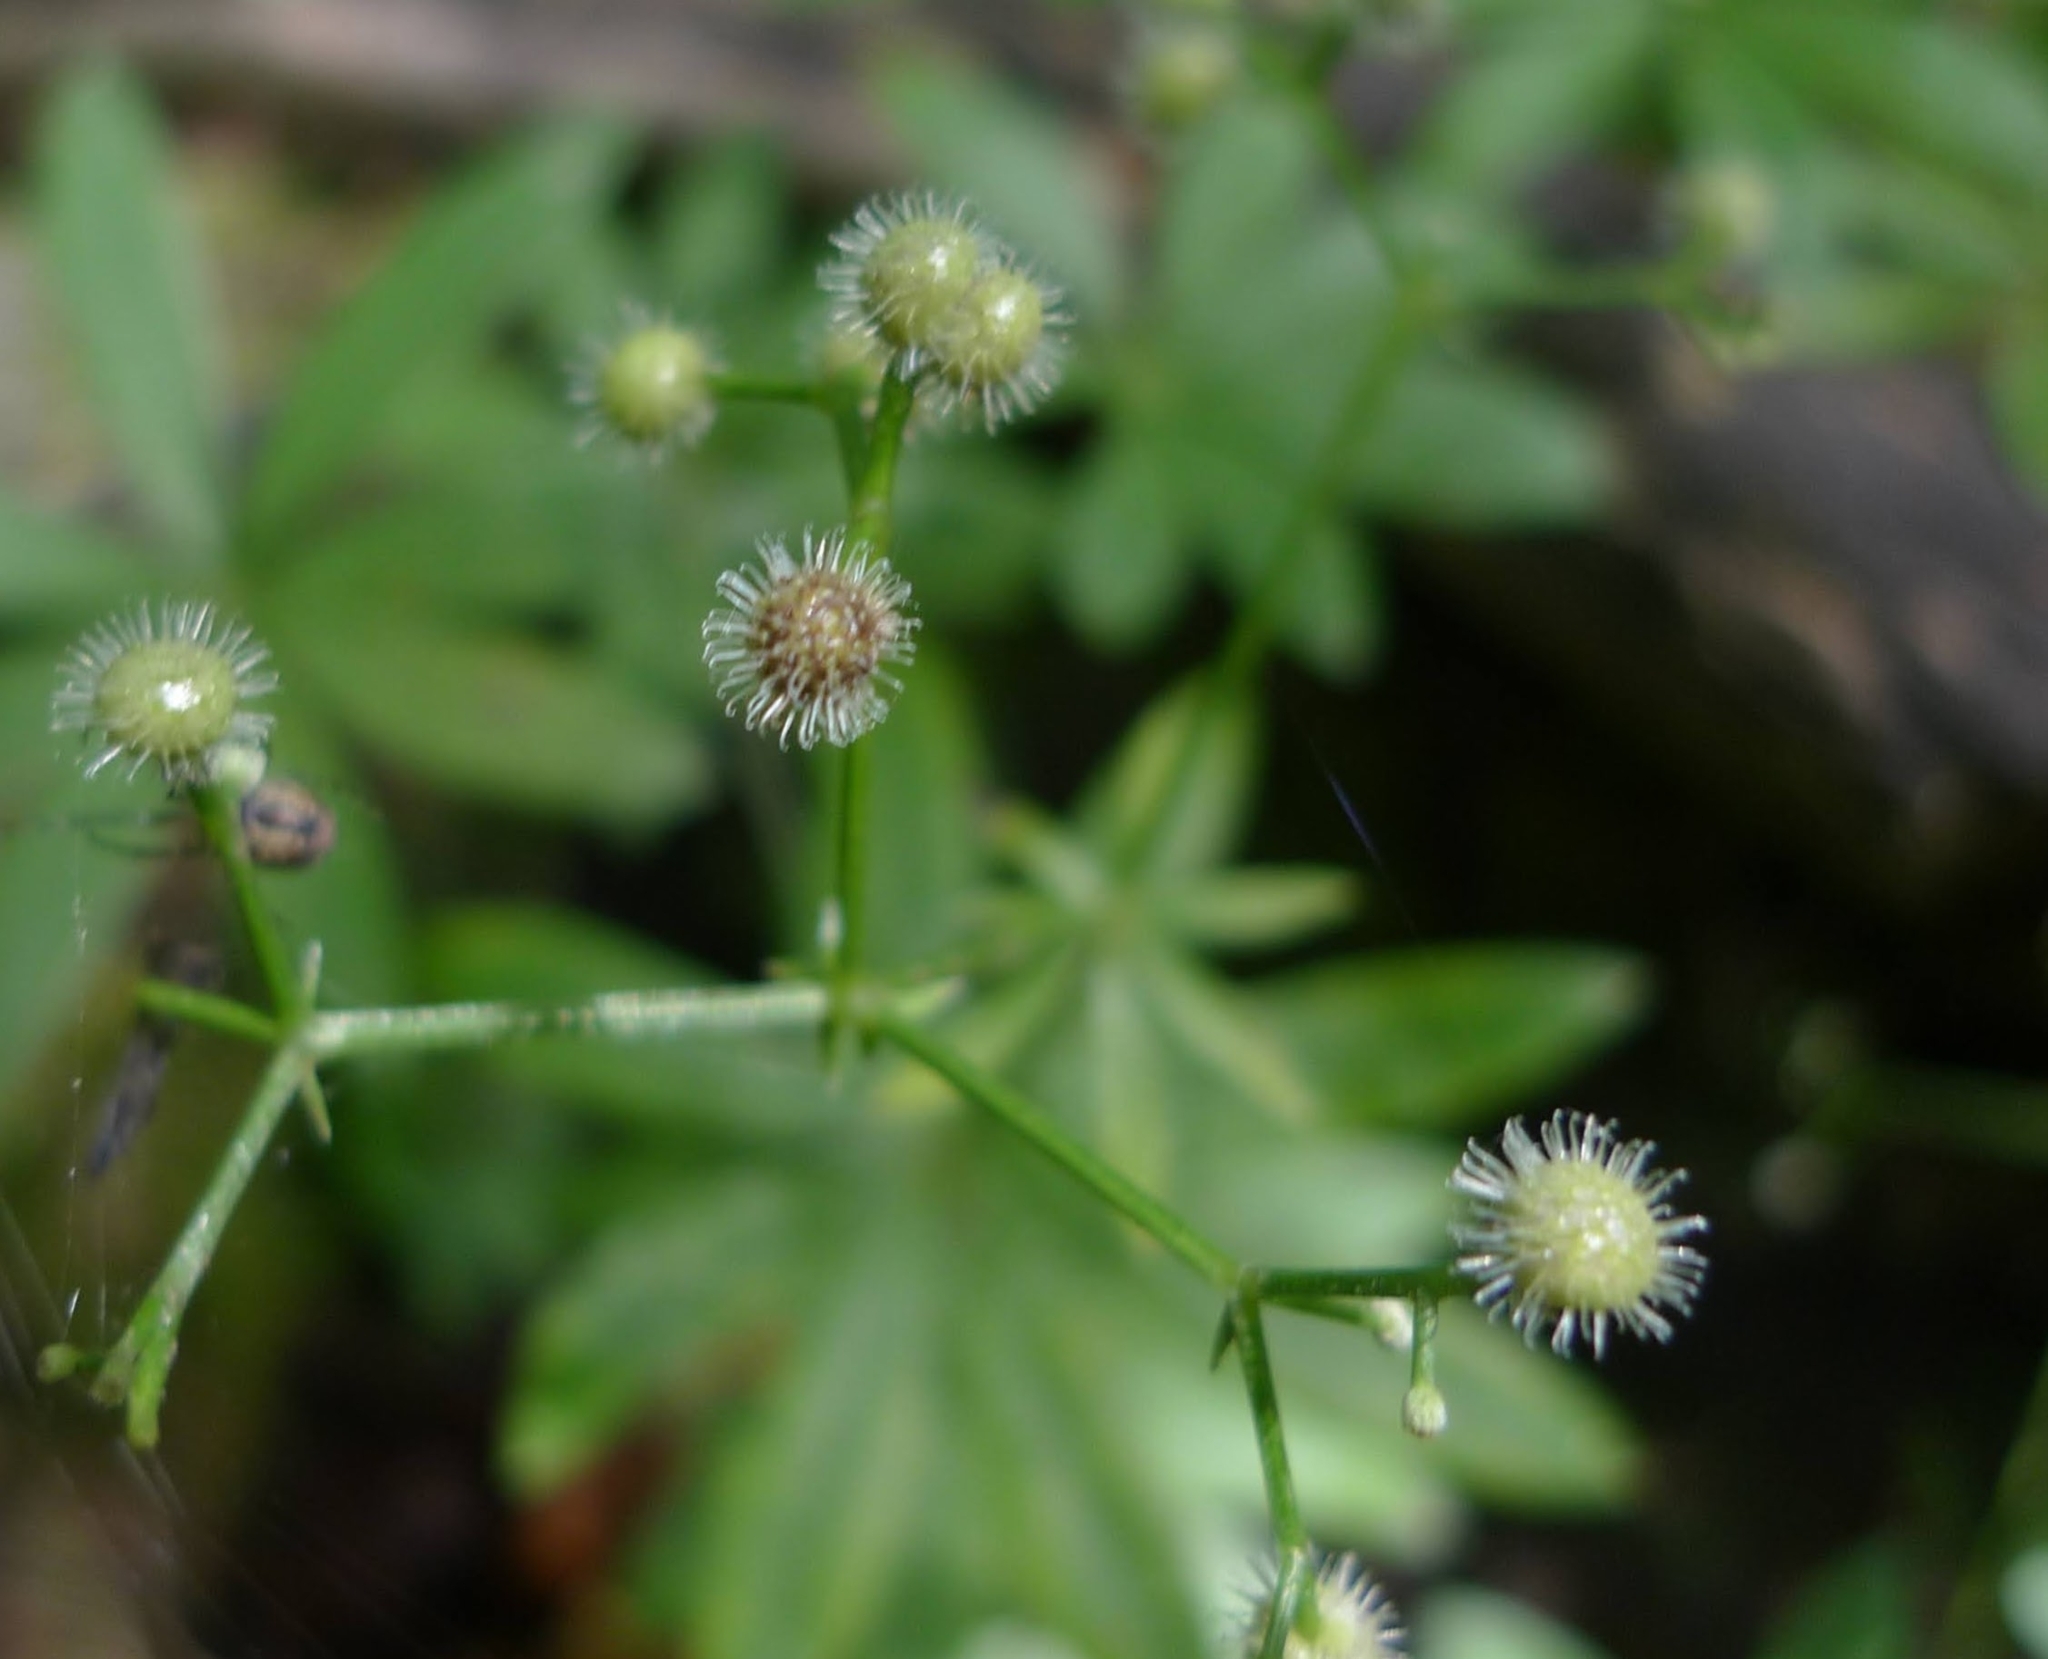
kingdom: Plantae
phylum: Tracheophyta
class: Magnoliopsida
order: Gentianales
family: Rubiaceae
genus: Galium
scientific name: Galium odoratum
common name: Sweet woodruff
